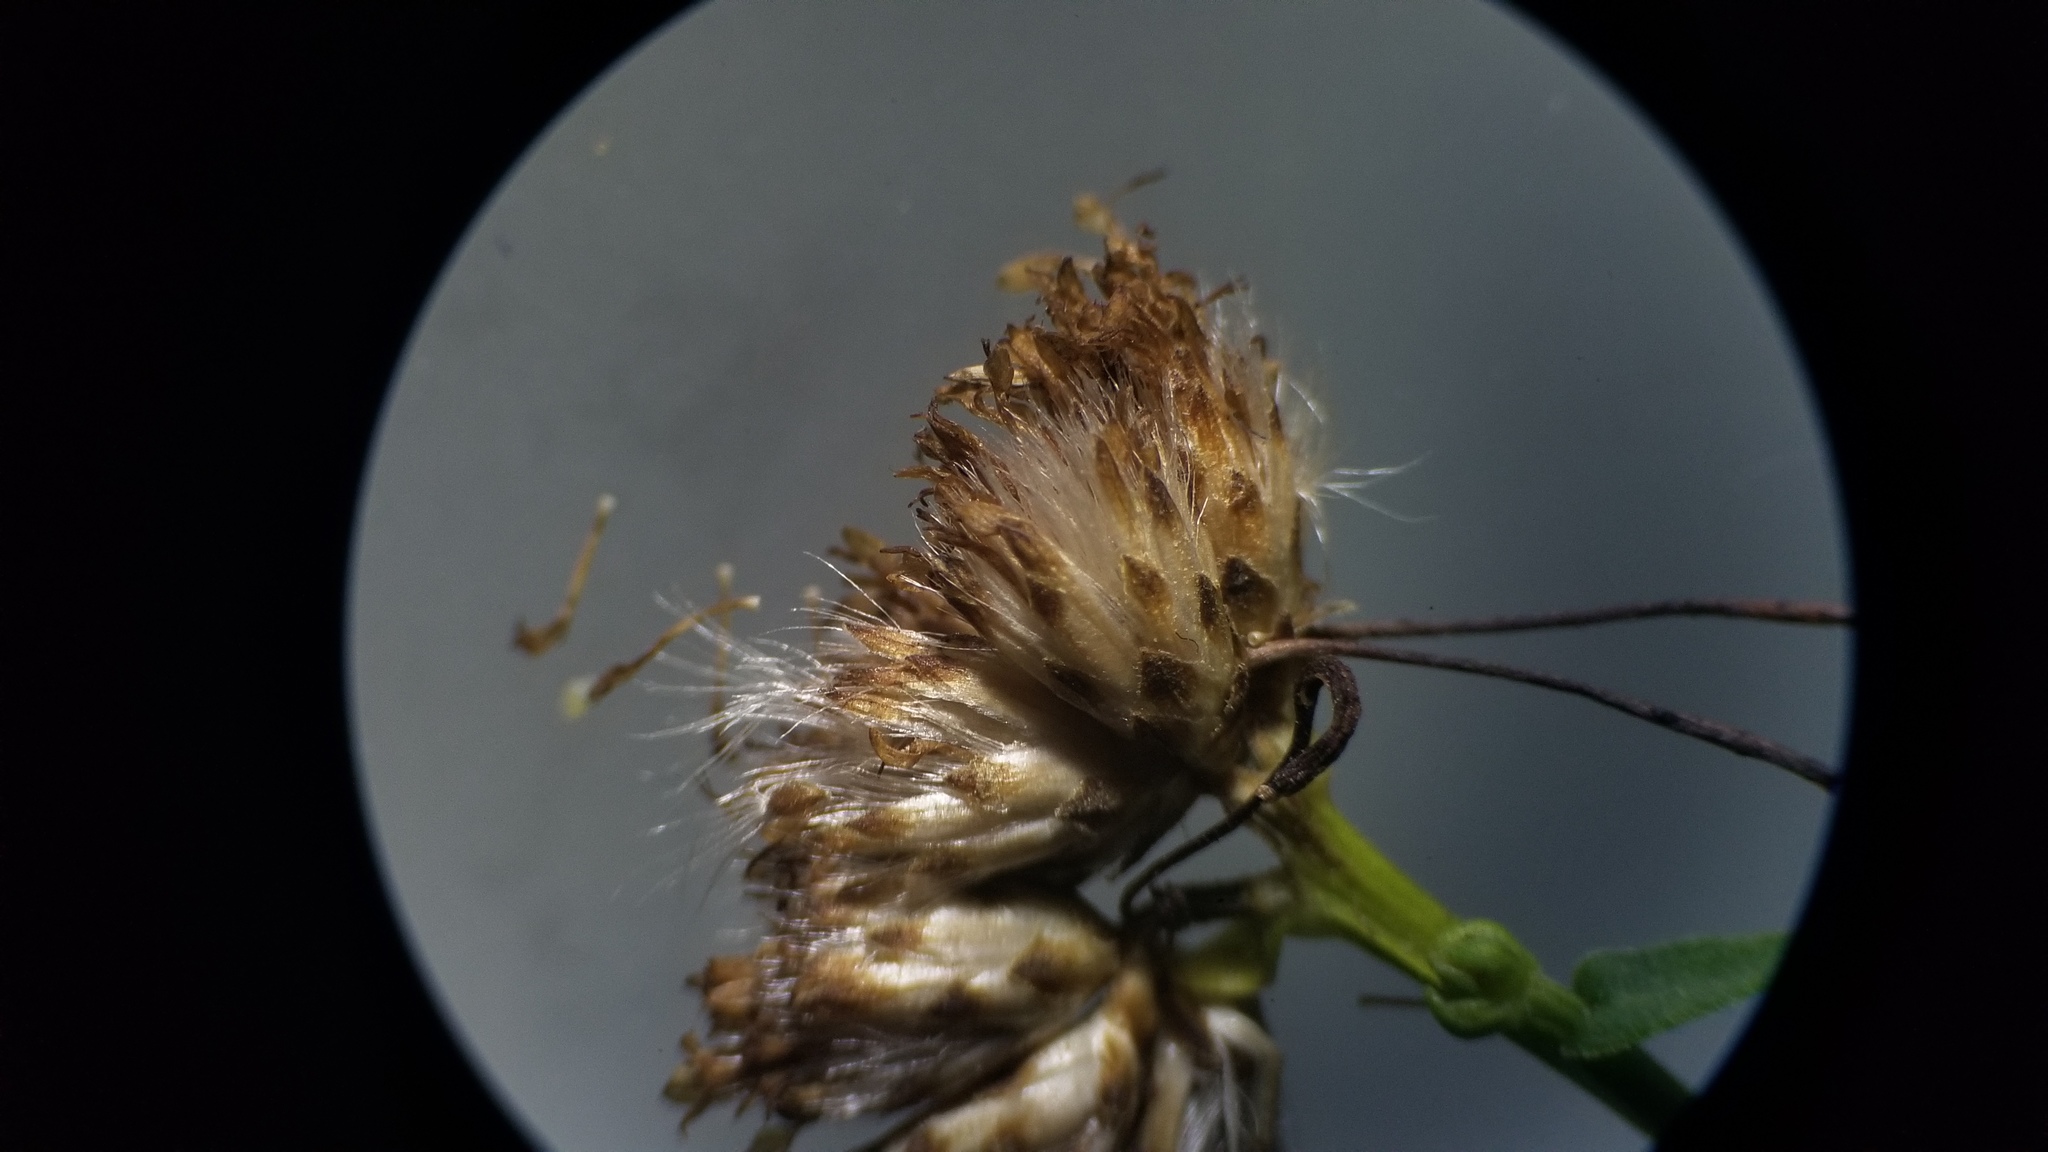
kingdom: Animalia
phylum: Arthropoda
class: Insecta
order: Diptera
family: Cecidomyiidae
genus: Rhopalomyia
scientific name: Rhopalomyia pedicellata
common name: Goldentop pedicellate gall midge
